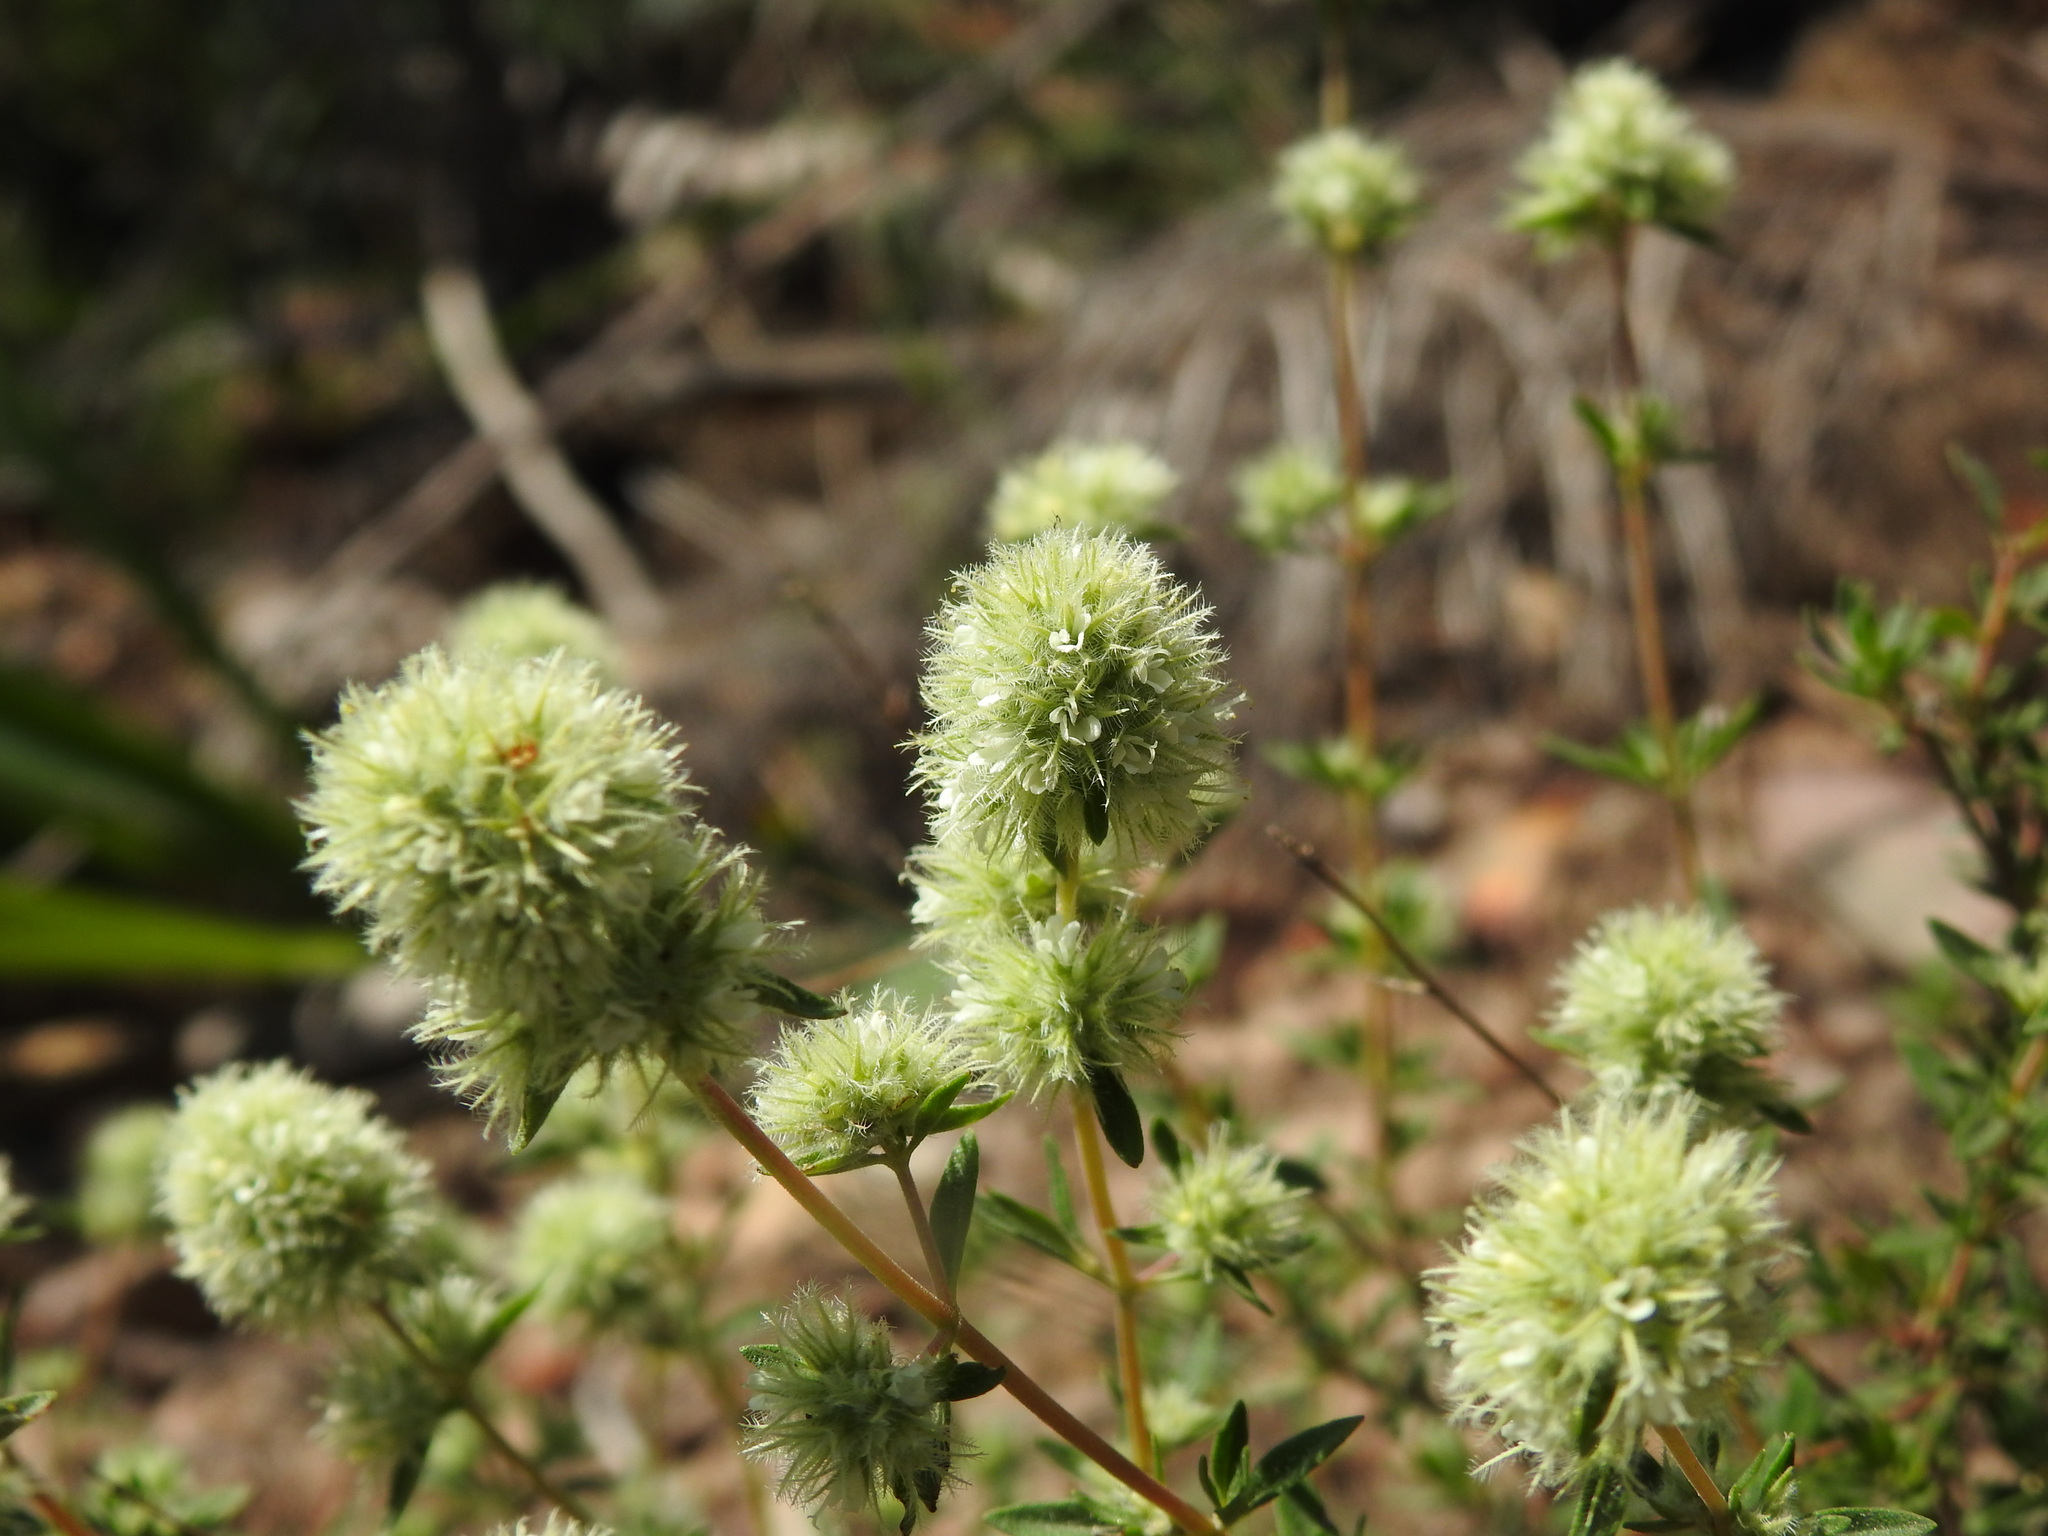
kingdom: Plantae
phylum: Tracheophyta
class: Magnoliopsida
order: Lamiales
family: Lamiaceae
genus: Thymus
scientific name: Thymus mastichina
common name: Mastic thyme
